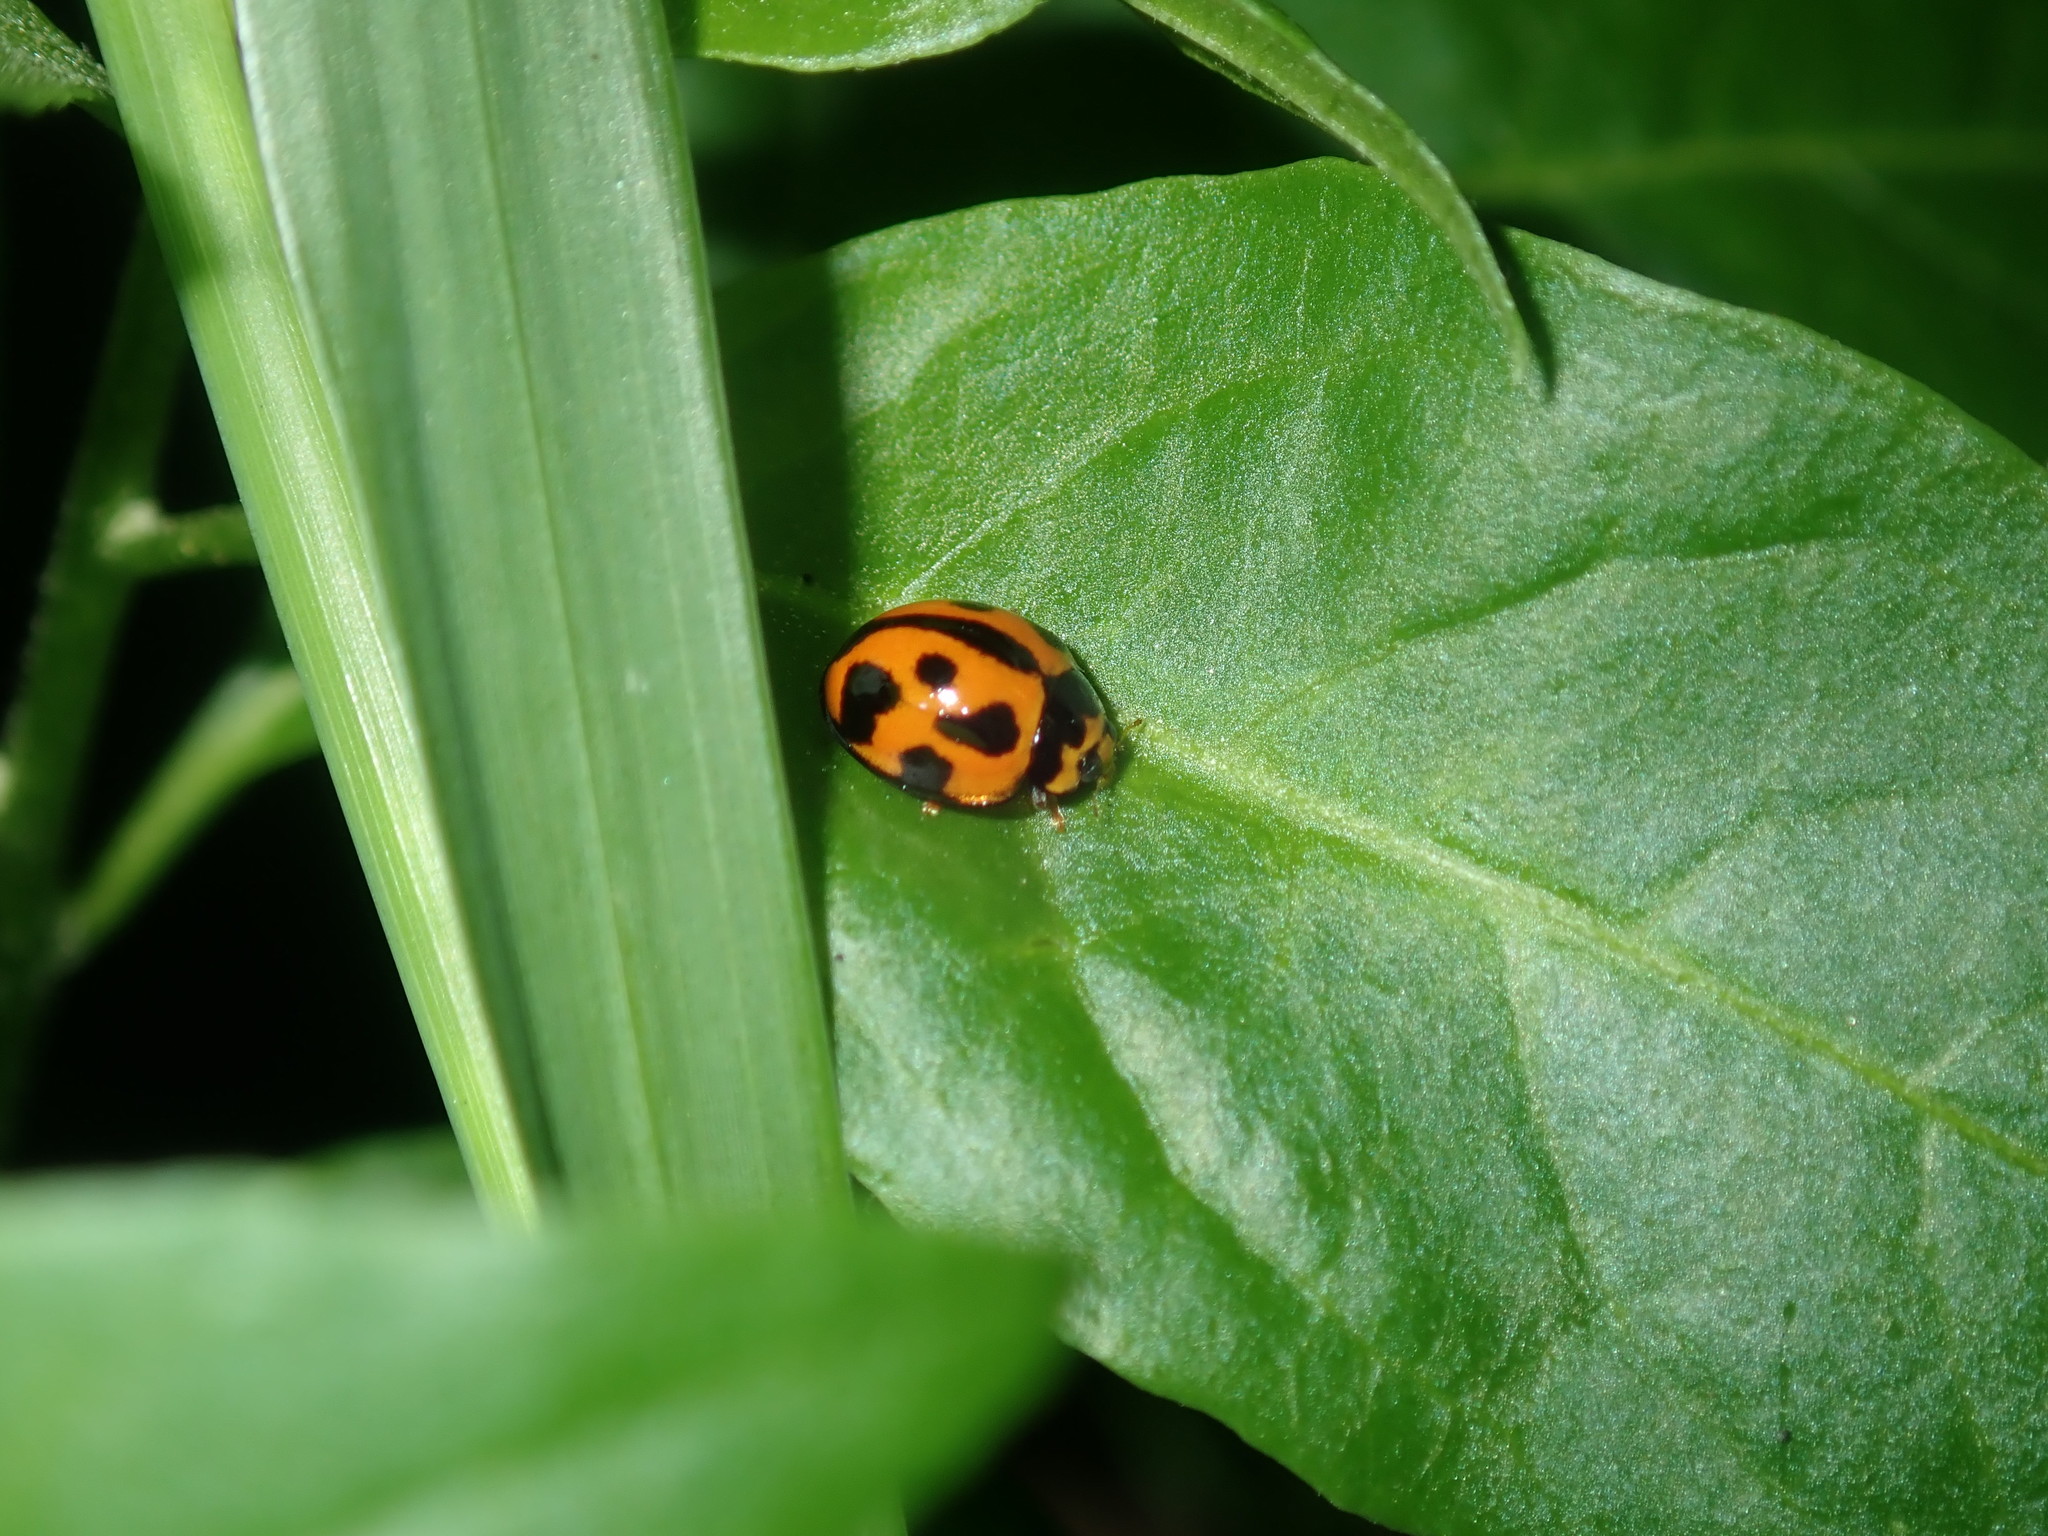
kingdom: Animalia
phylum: Arthropoda
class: Insecta
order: Coleoptera
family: Coccinellidae
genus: Coelophora
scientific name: Coelophora inaequalis
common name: Common australian lady beetle
